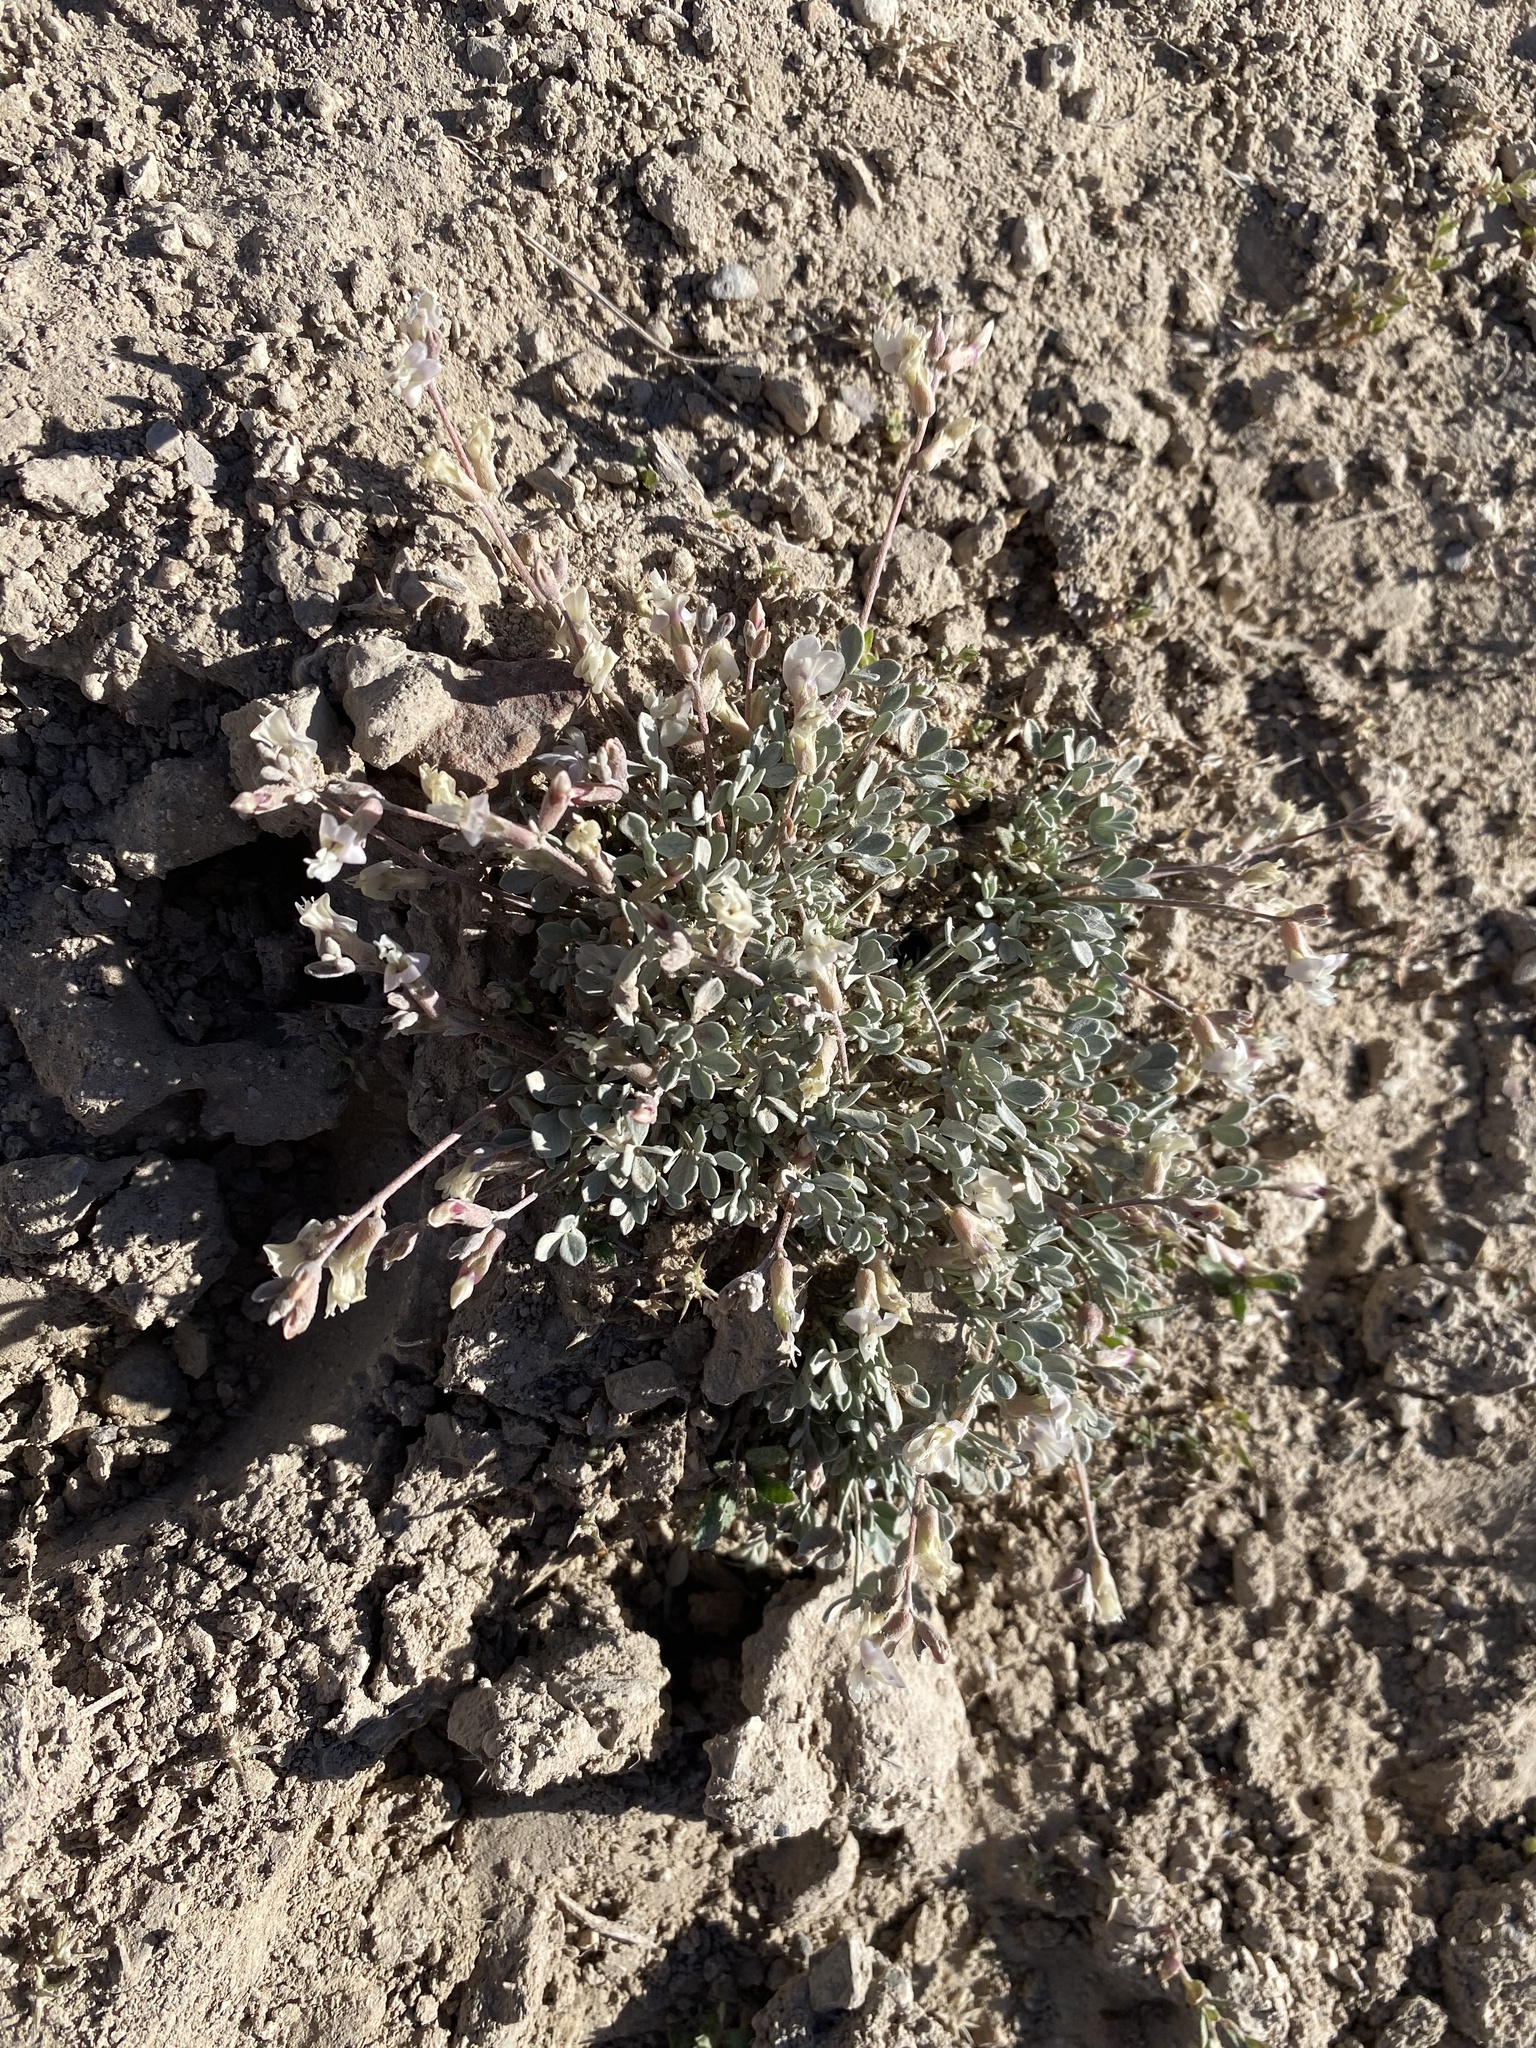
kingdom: Plantae
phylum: Tracheophyta
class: Magnoliopsida
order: Fabales
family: Fabaceae
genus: Astragalus
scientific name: Astragalus calycosus
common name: King's milkvetch
